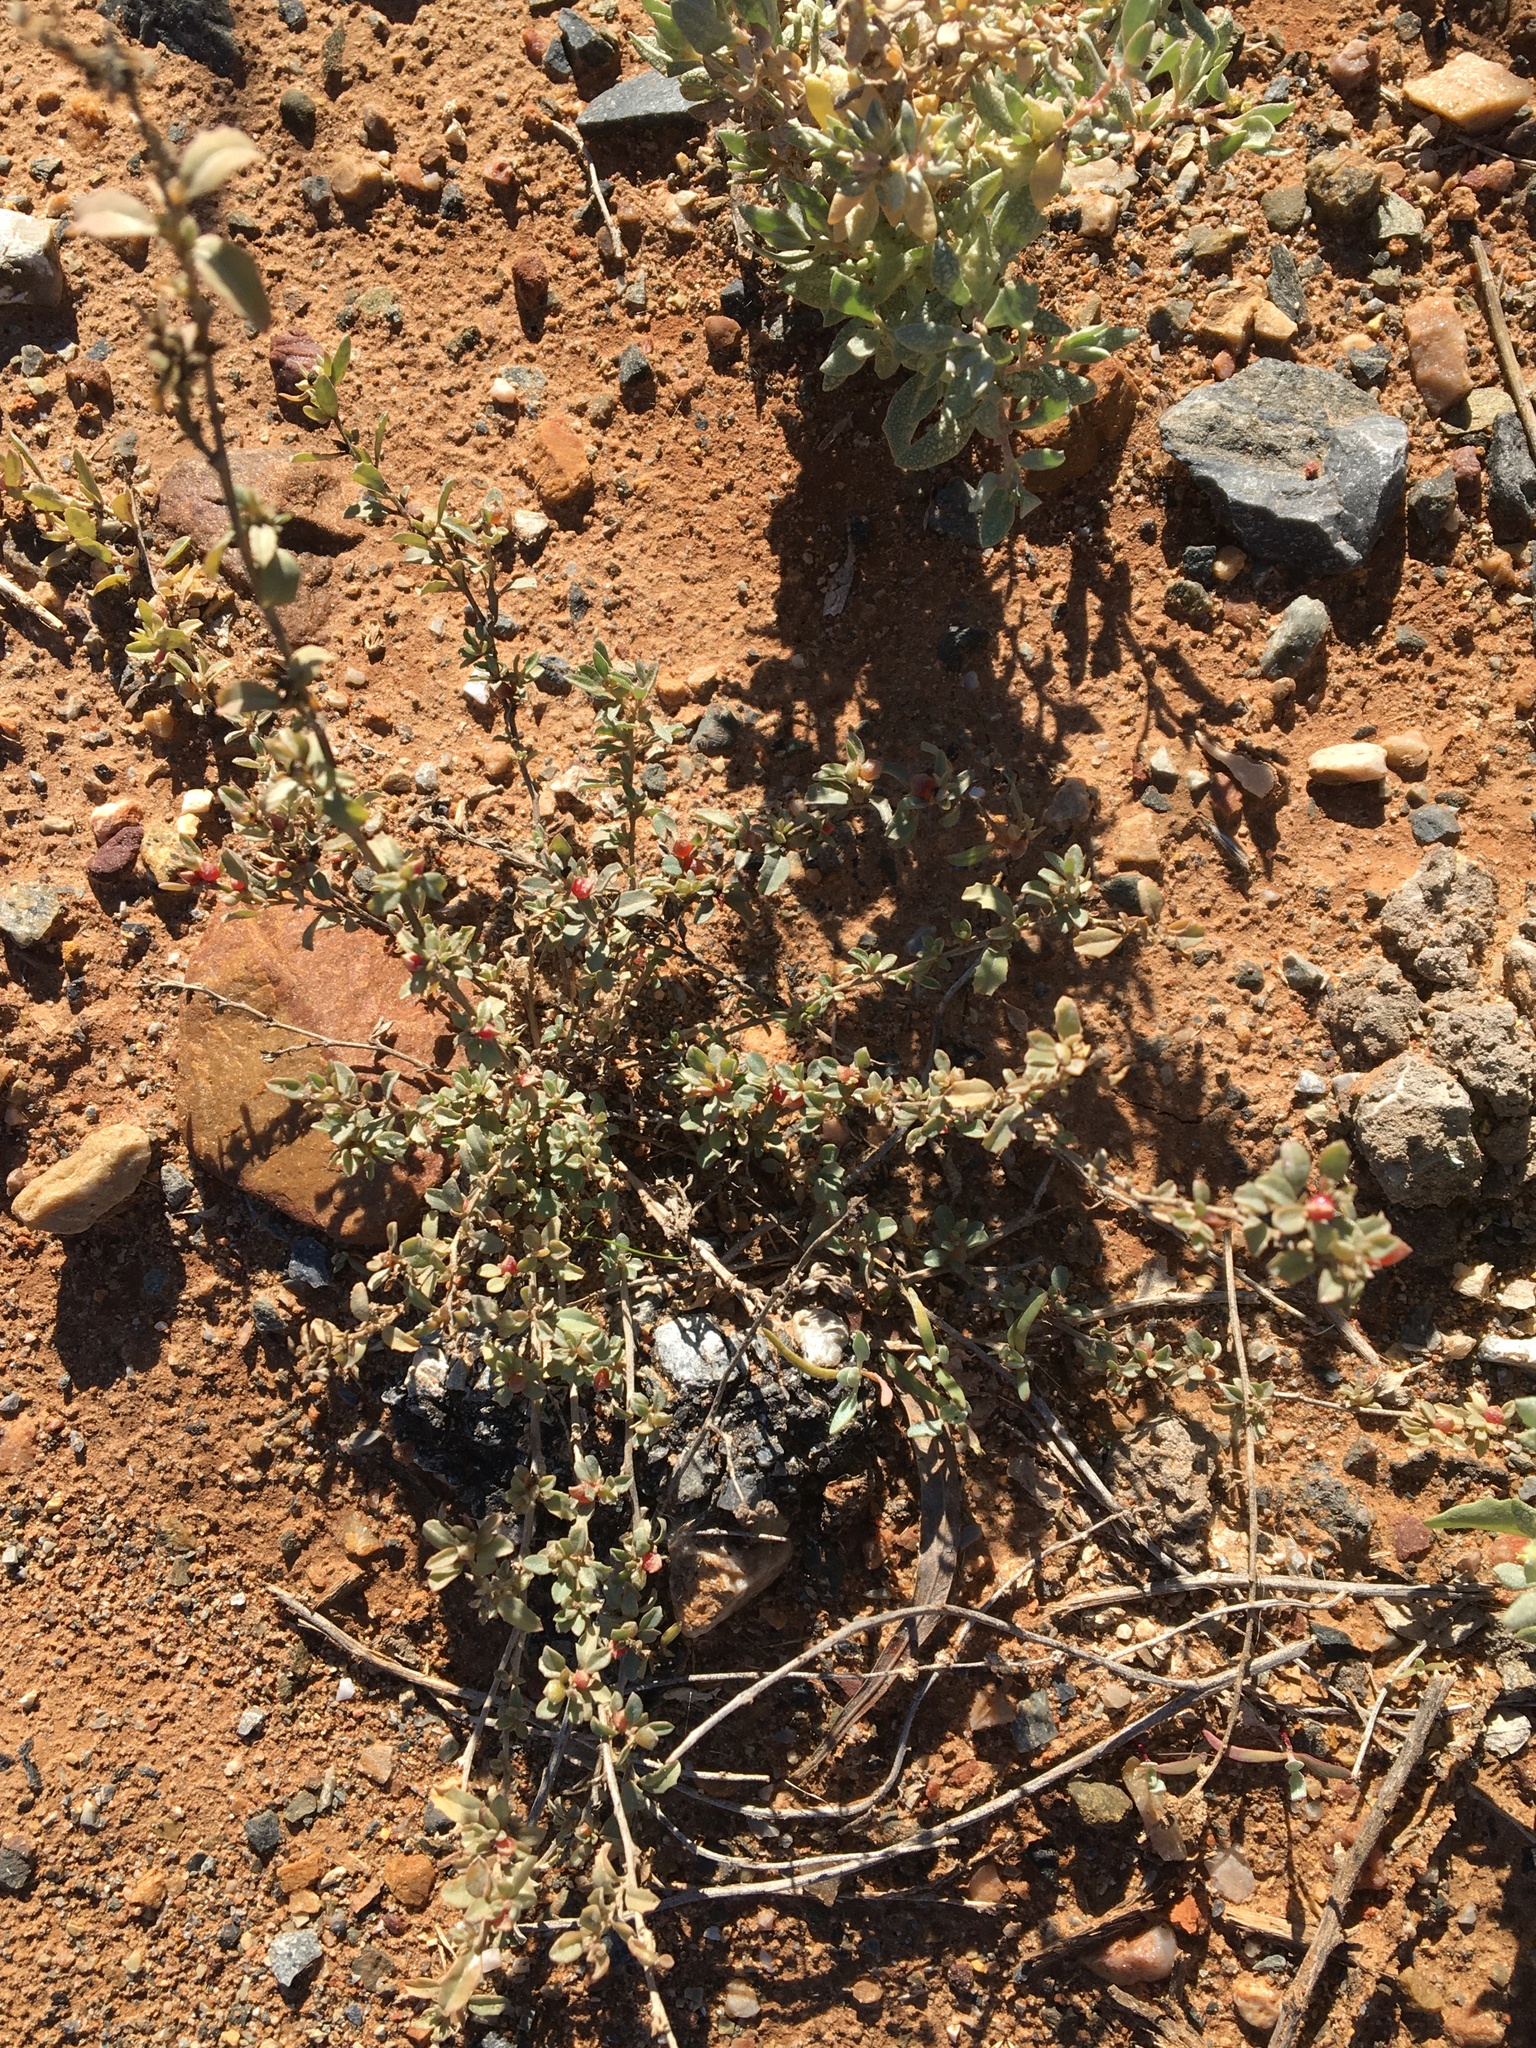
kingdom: Plantae
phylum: Tracheophyta
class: Magnoliopsida
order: Caryophyllales
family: Amaranthaceae
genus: Atriplex
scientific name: Atriplex semibaccata
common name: Australian saltbush
